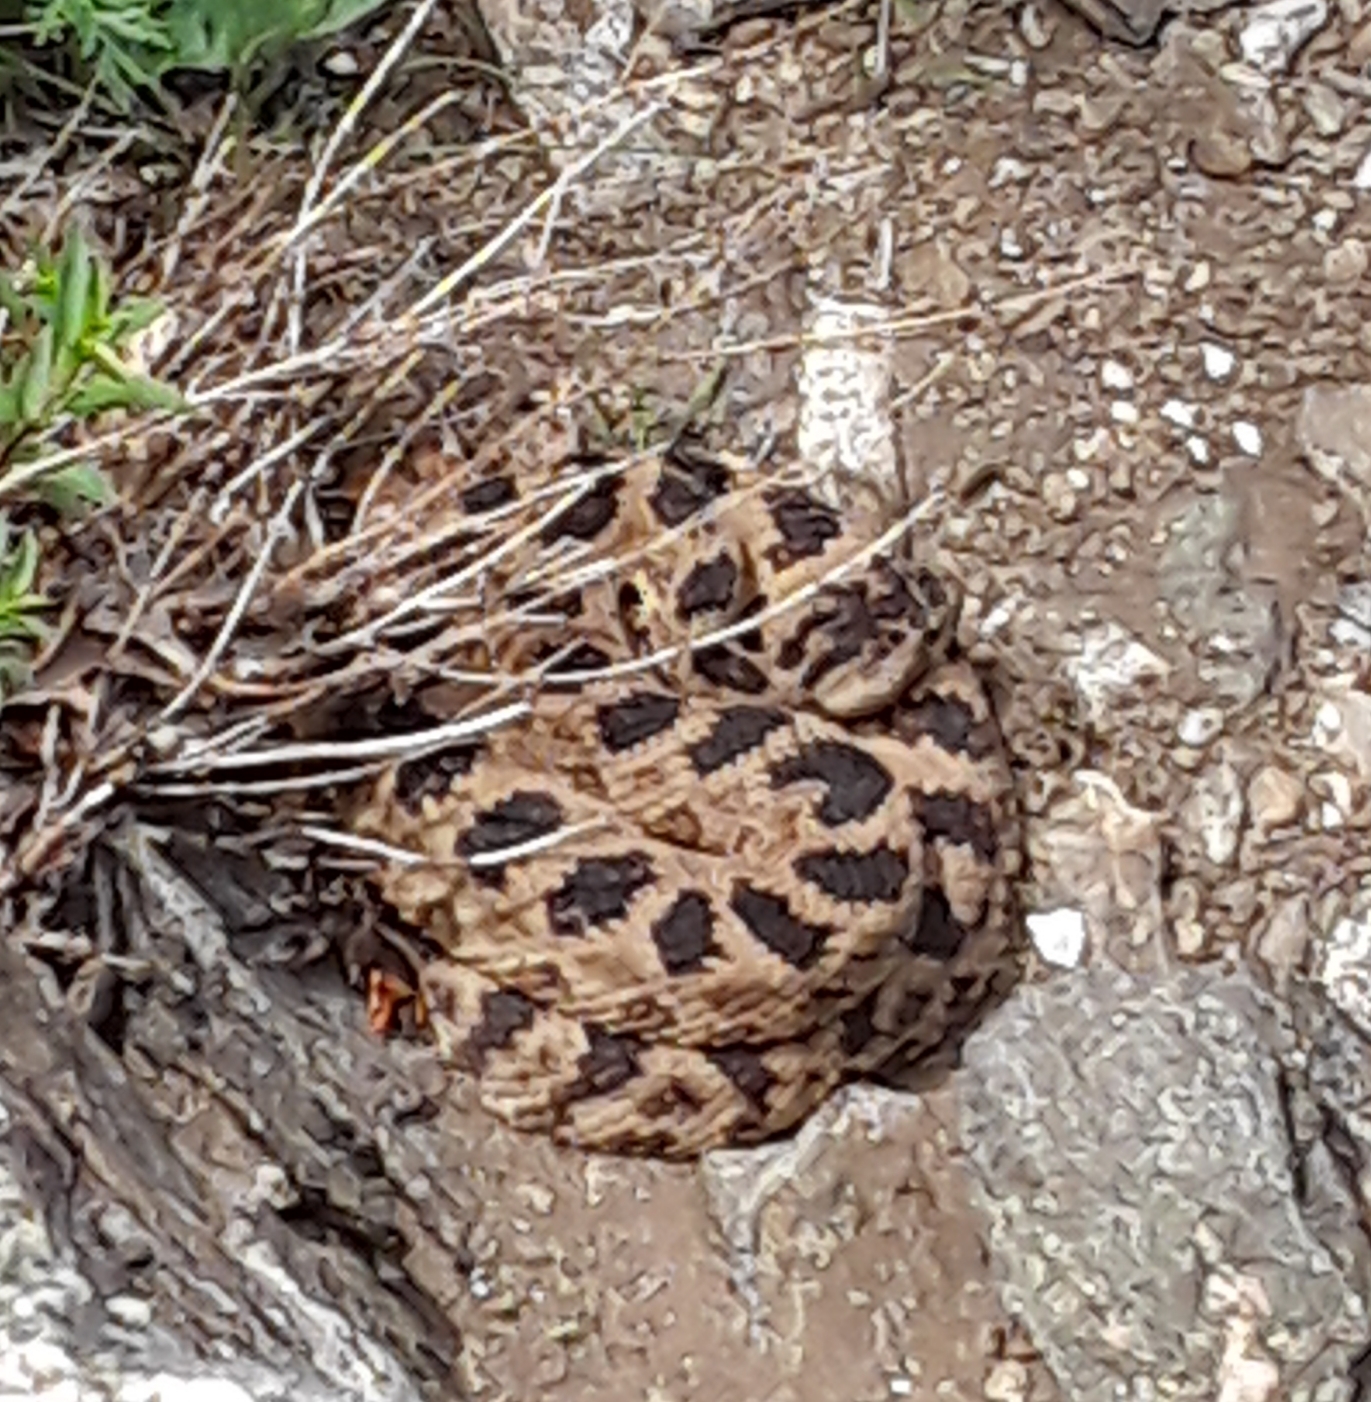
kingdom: Animalia
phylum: Chordata
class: Squamata
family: Viperidae
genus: Crotalus
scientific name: Crotalus oreganus
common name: Abyssus
